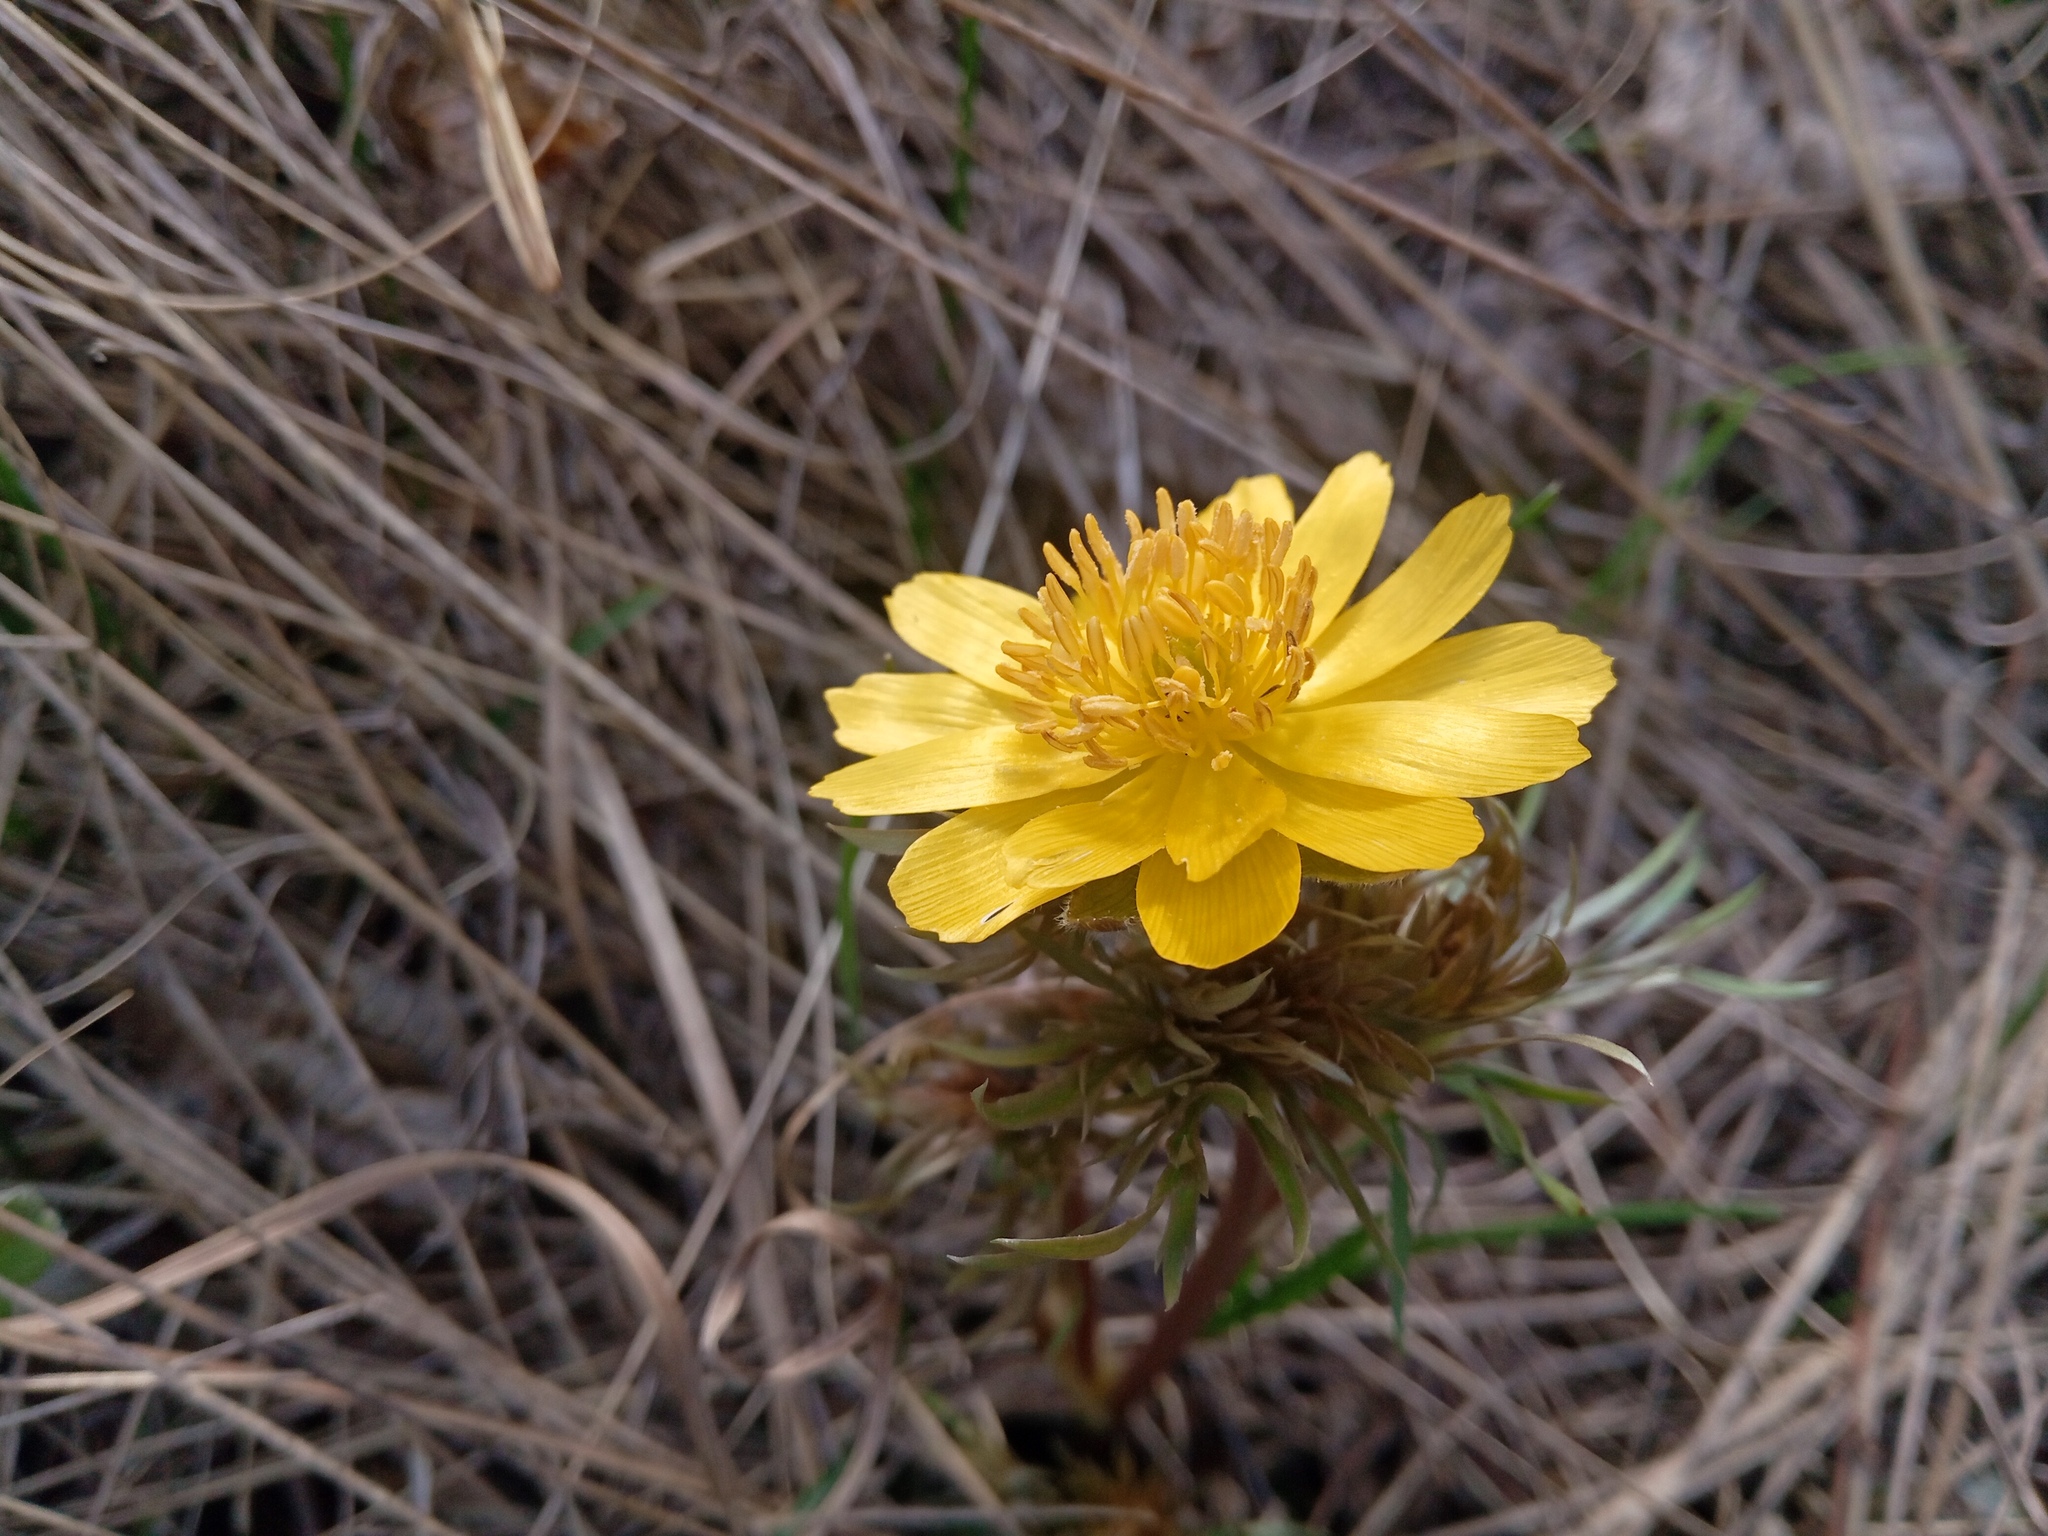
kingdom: Plantae
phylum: Tracheophyta
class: Magnoliopsida
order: Ranunculales
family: Ranunculaceae
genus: Adonis
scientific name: Adonis volgensis
